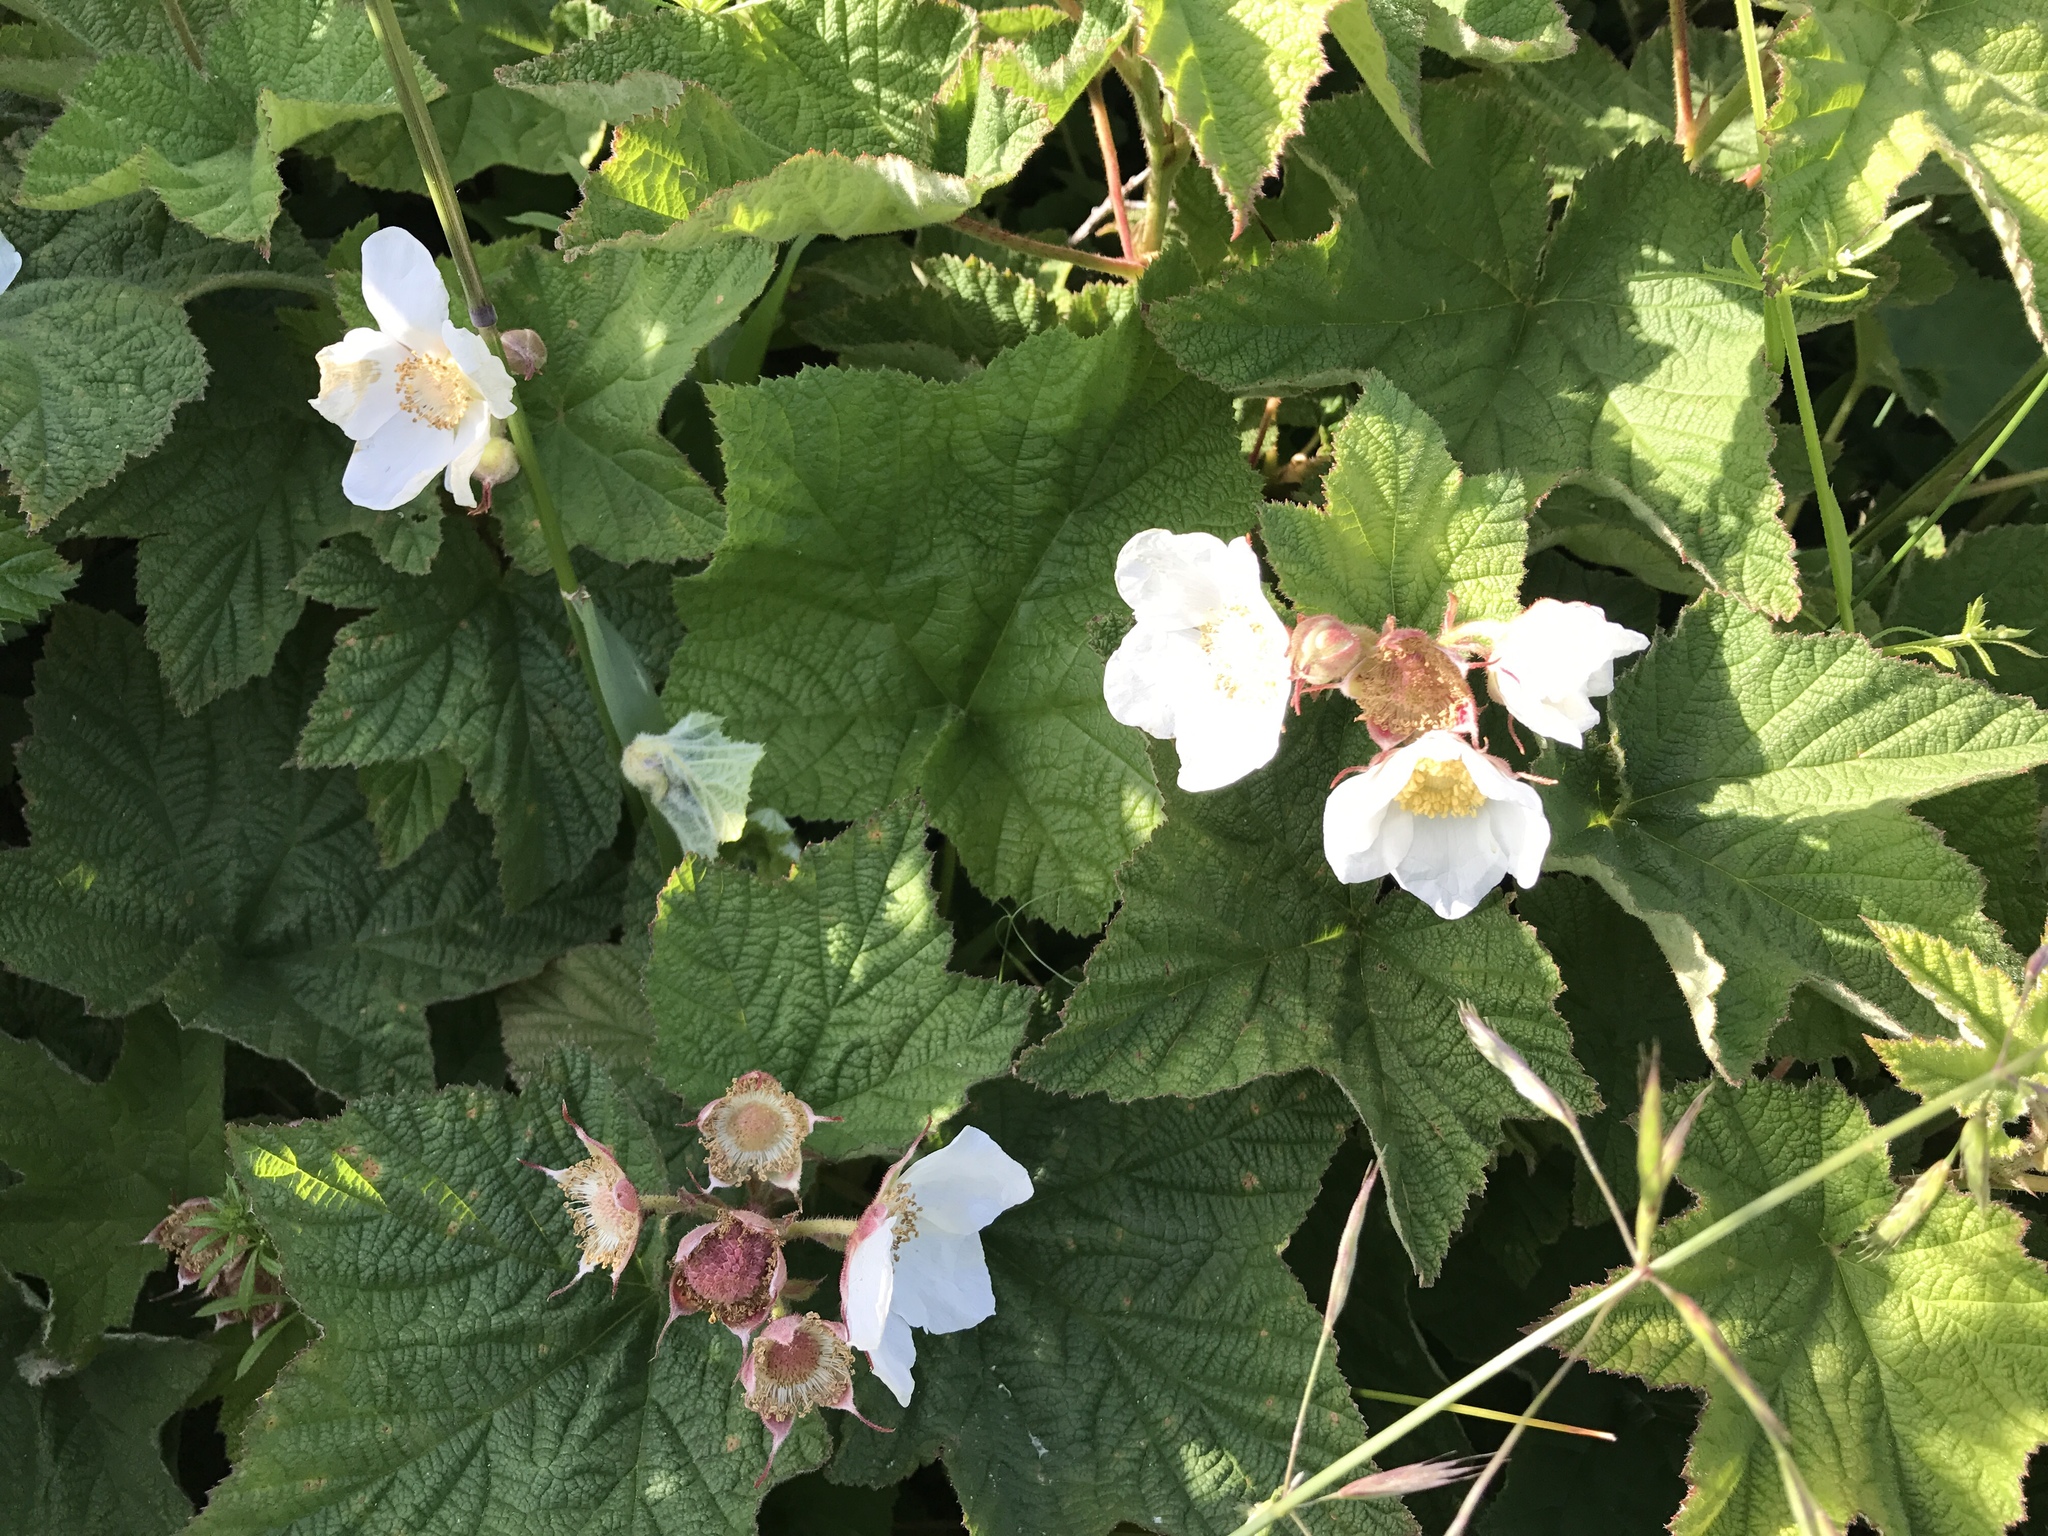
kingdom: Plantae
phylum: Tracheophyta
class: Magnoliopsida
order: Rosales
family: Rosaceae
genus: Rubus
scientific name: Rubus parviflorus
